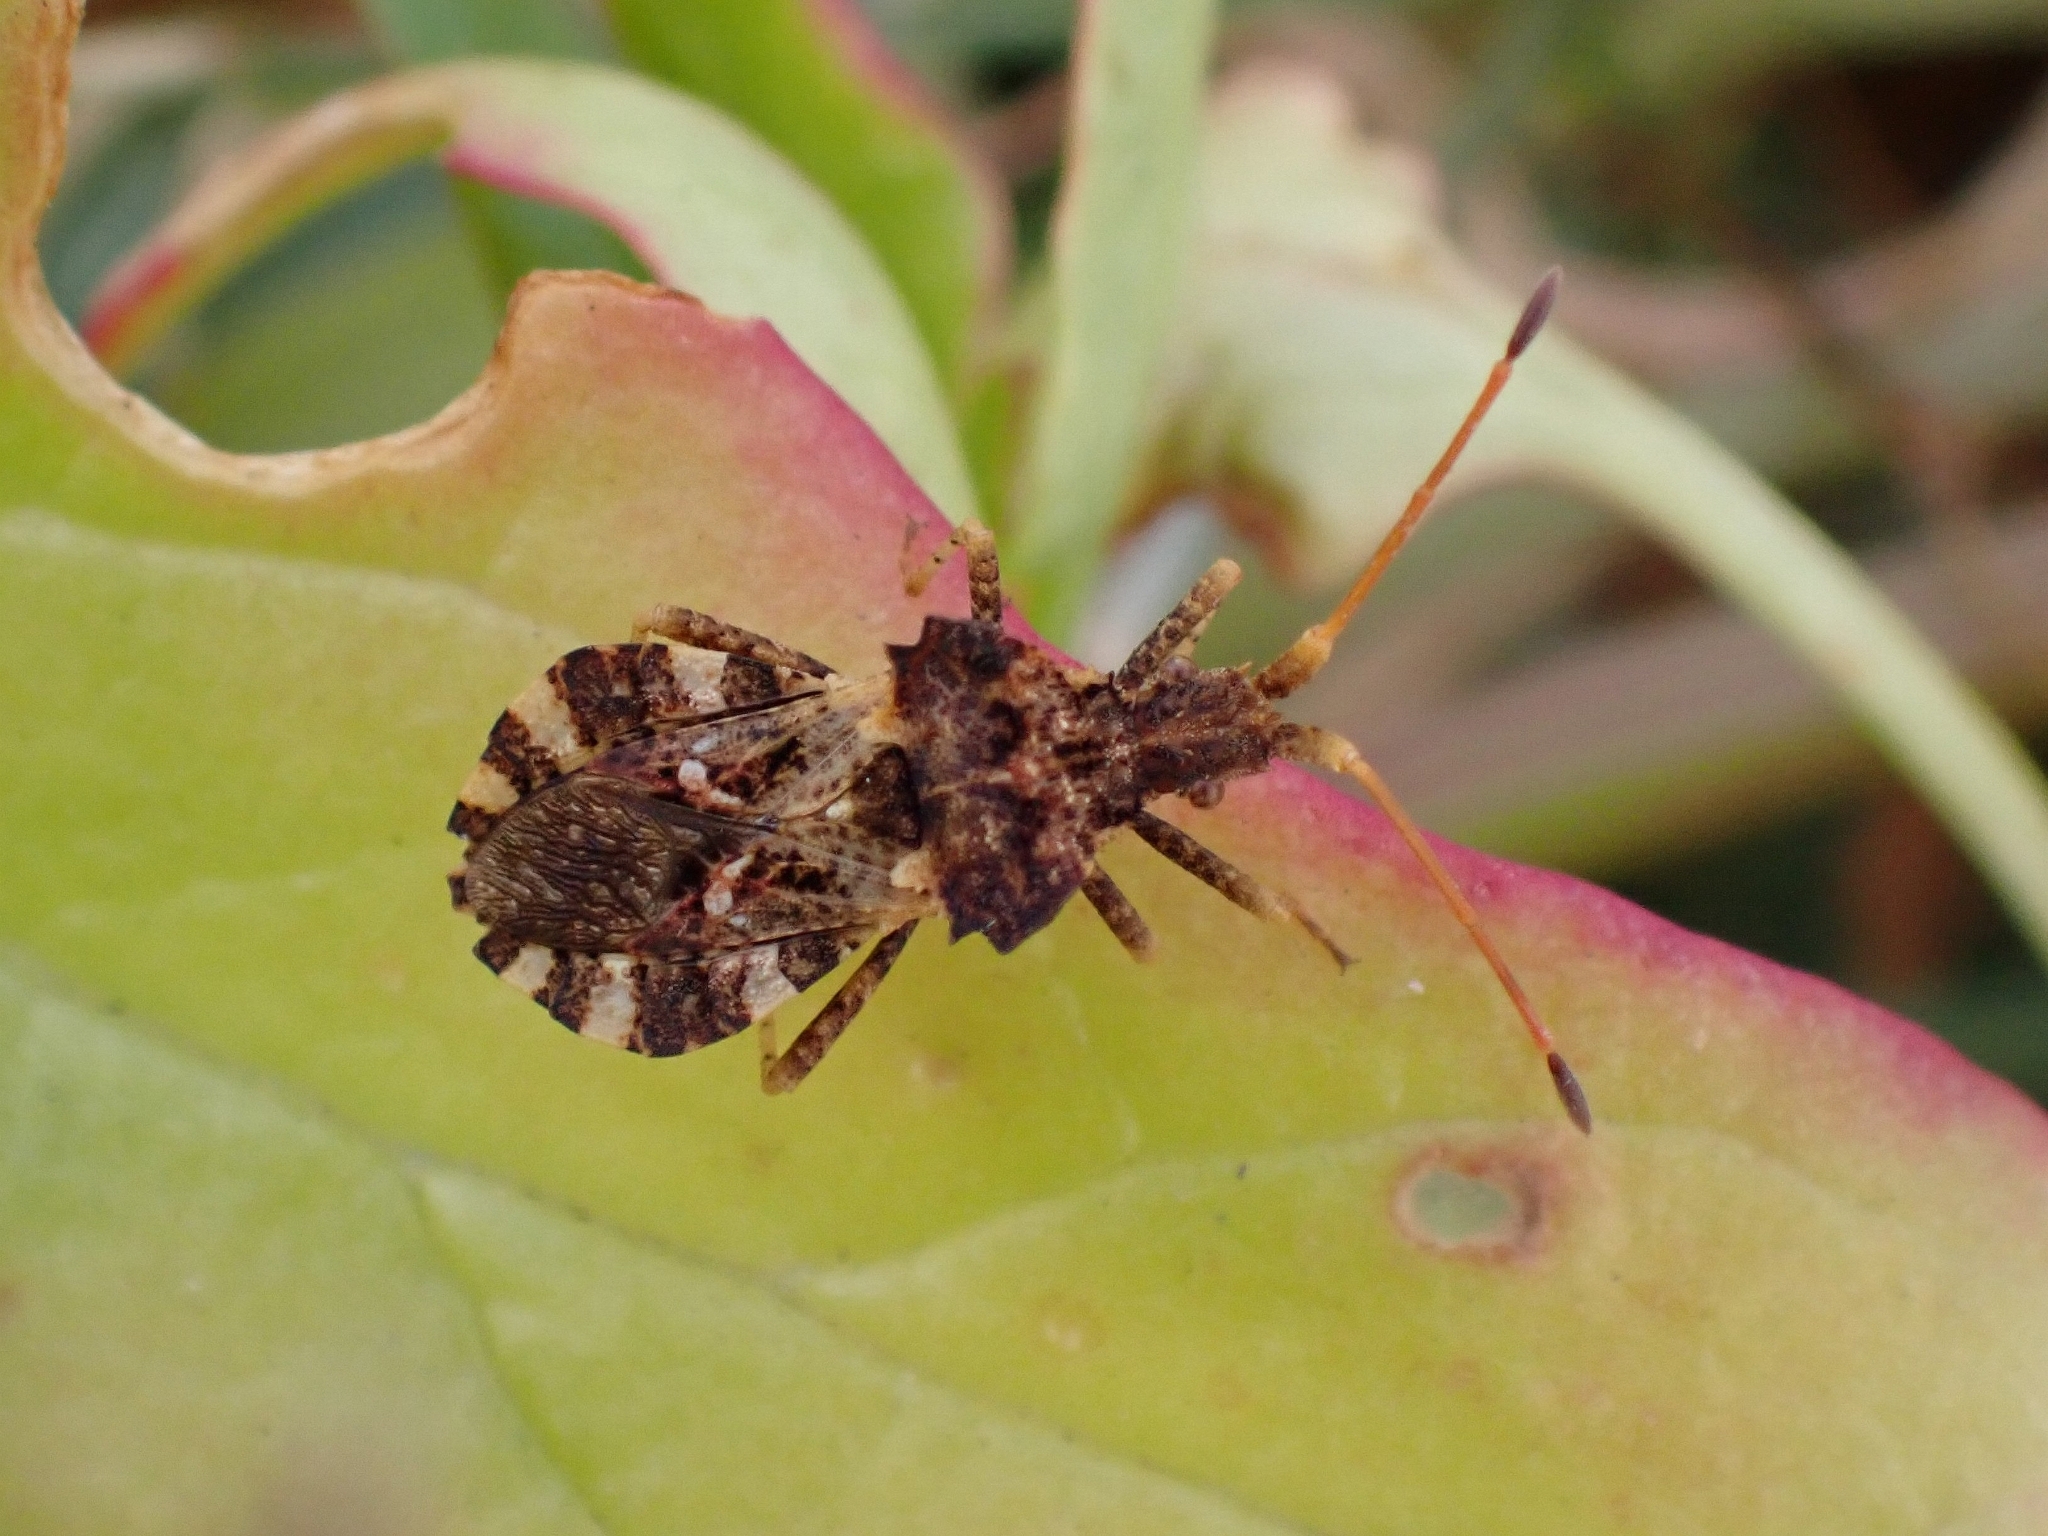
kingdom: Animalia
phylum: Arthropoda
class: Insecta
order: Hemiptera
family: Coreidae
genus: Centrocoris
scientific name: Centrocoris variegatus
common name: Leaf-footed bug
